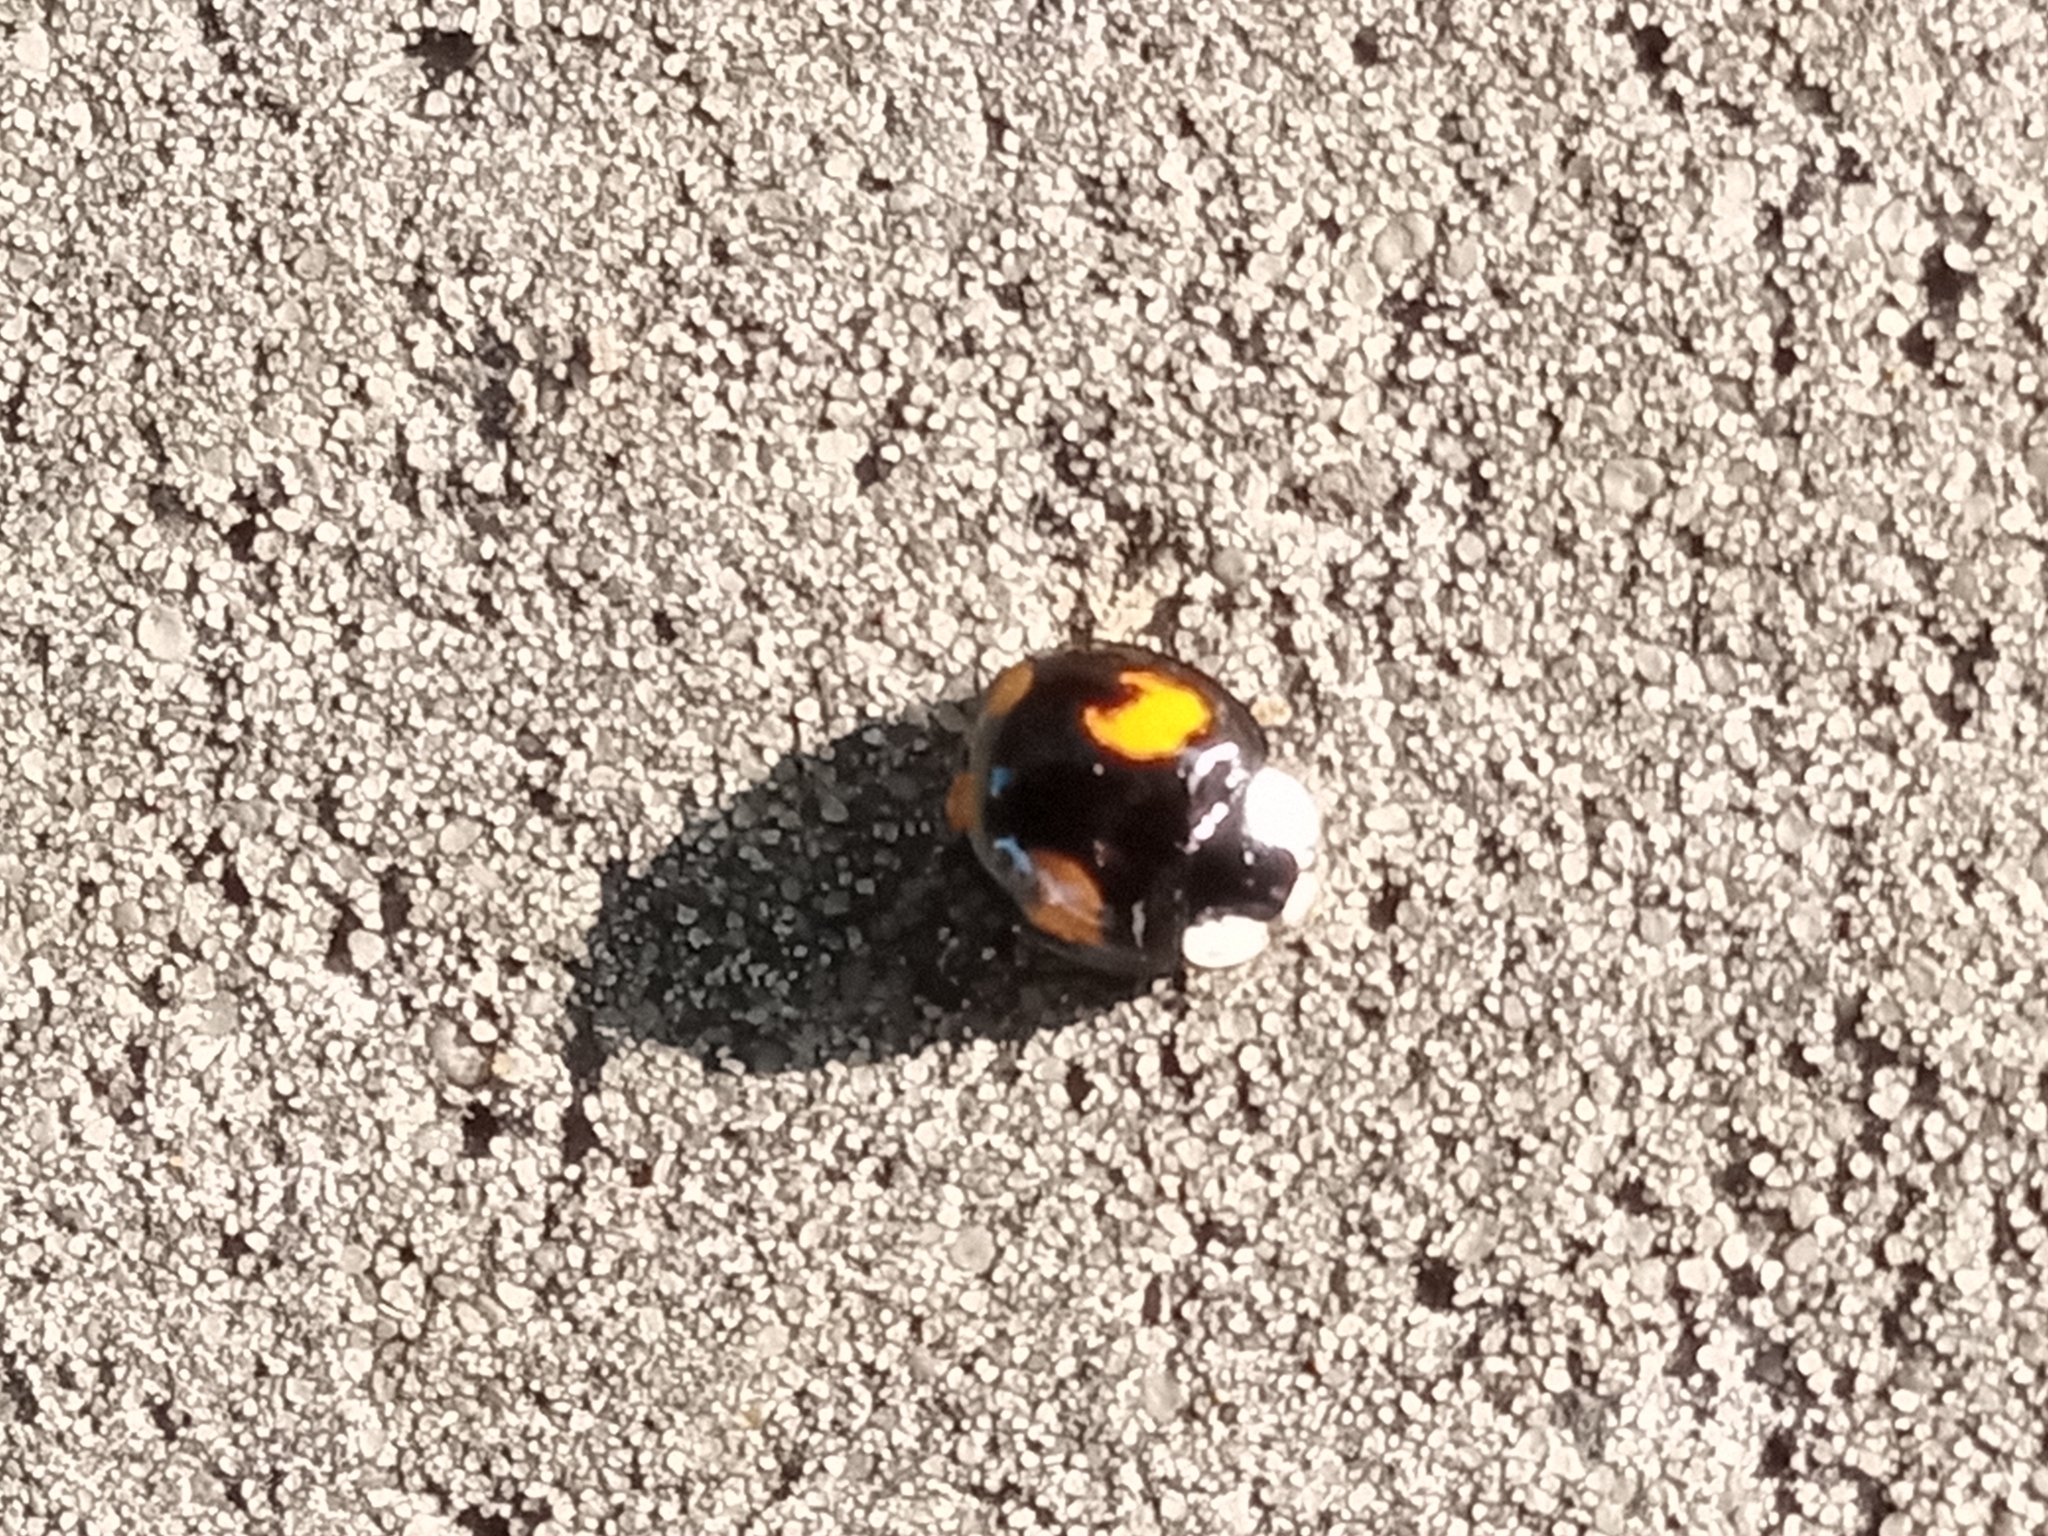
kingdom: Animalia
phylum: Arthropoda
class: Insecta
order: Coleoptera
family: Coccinellidae
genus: Harmonia
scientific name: Harmonia axyridis
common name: Harlequin ladybird
